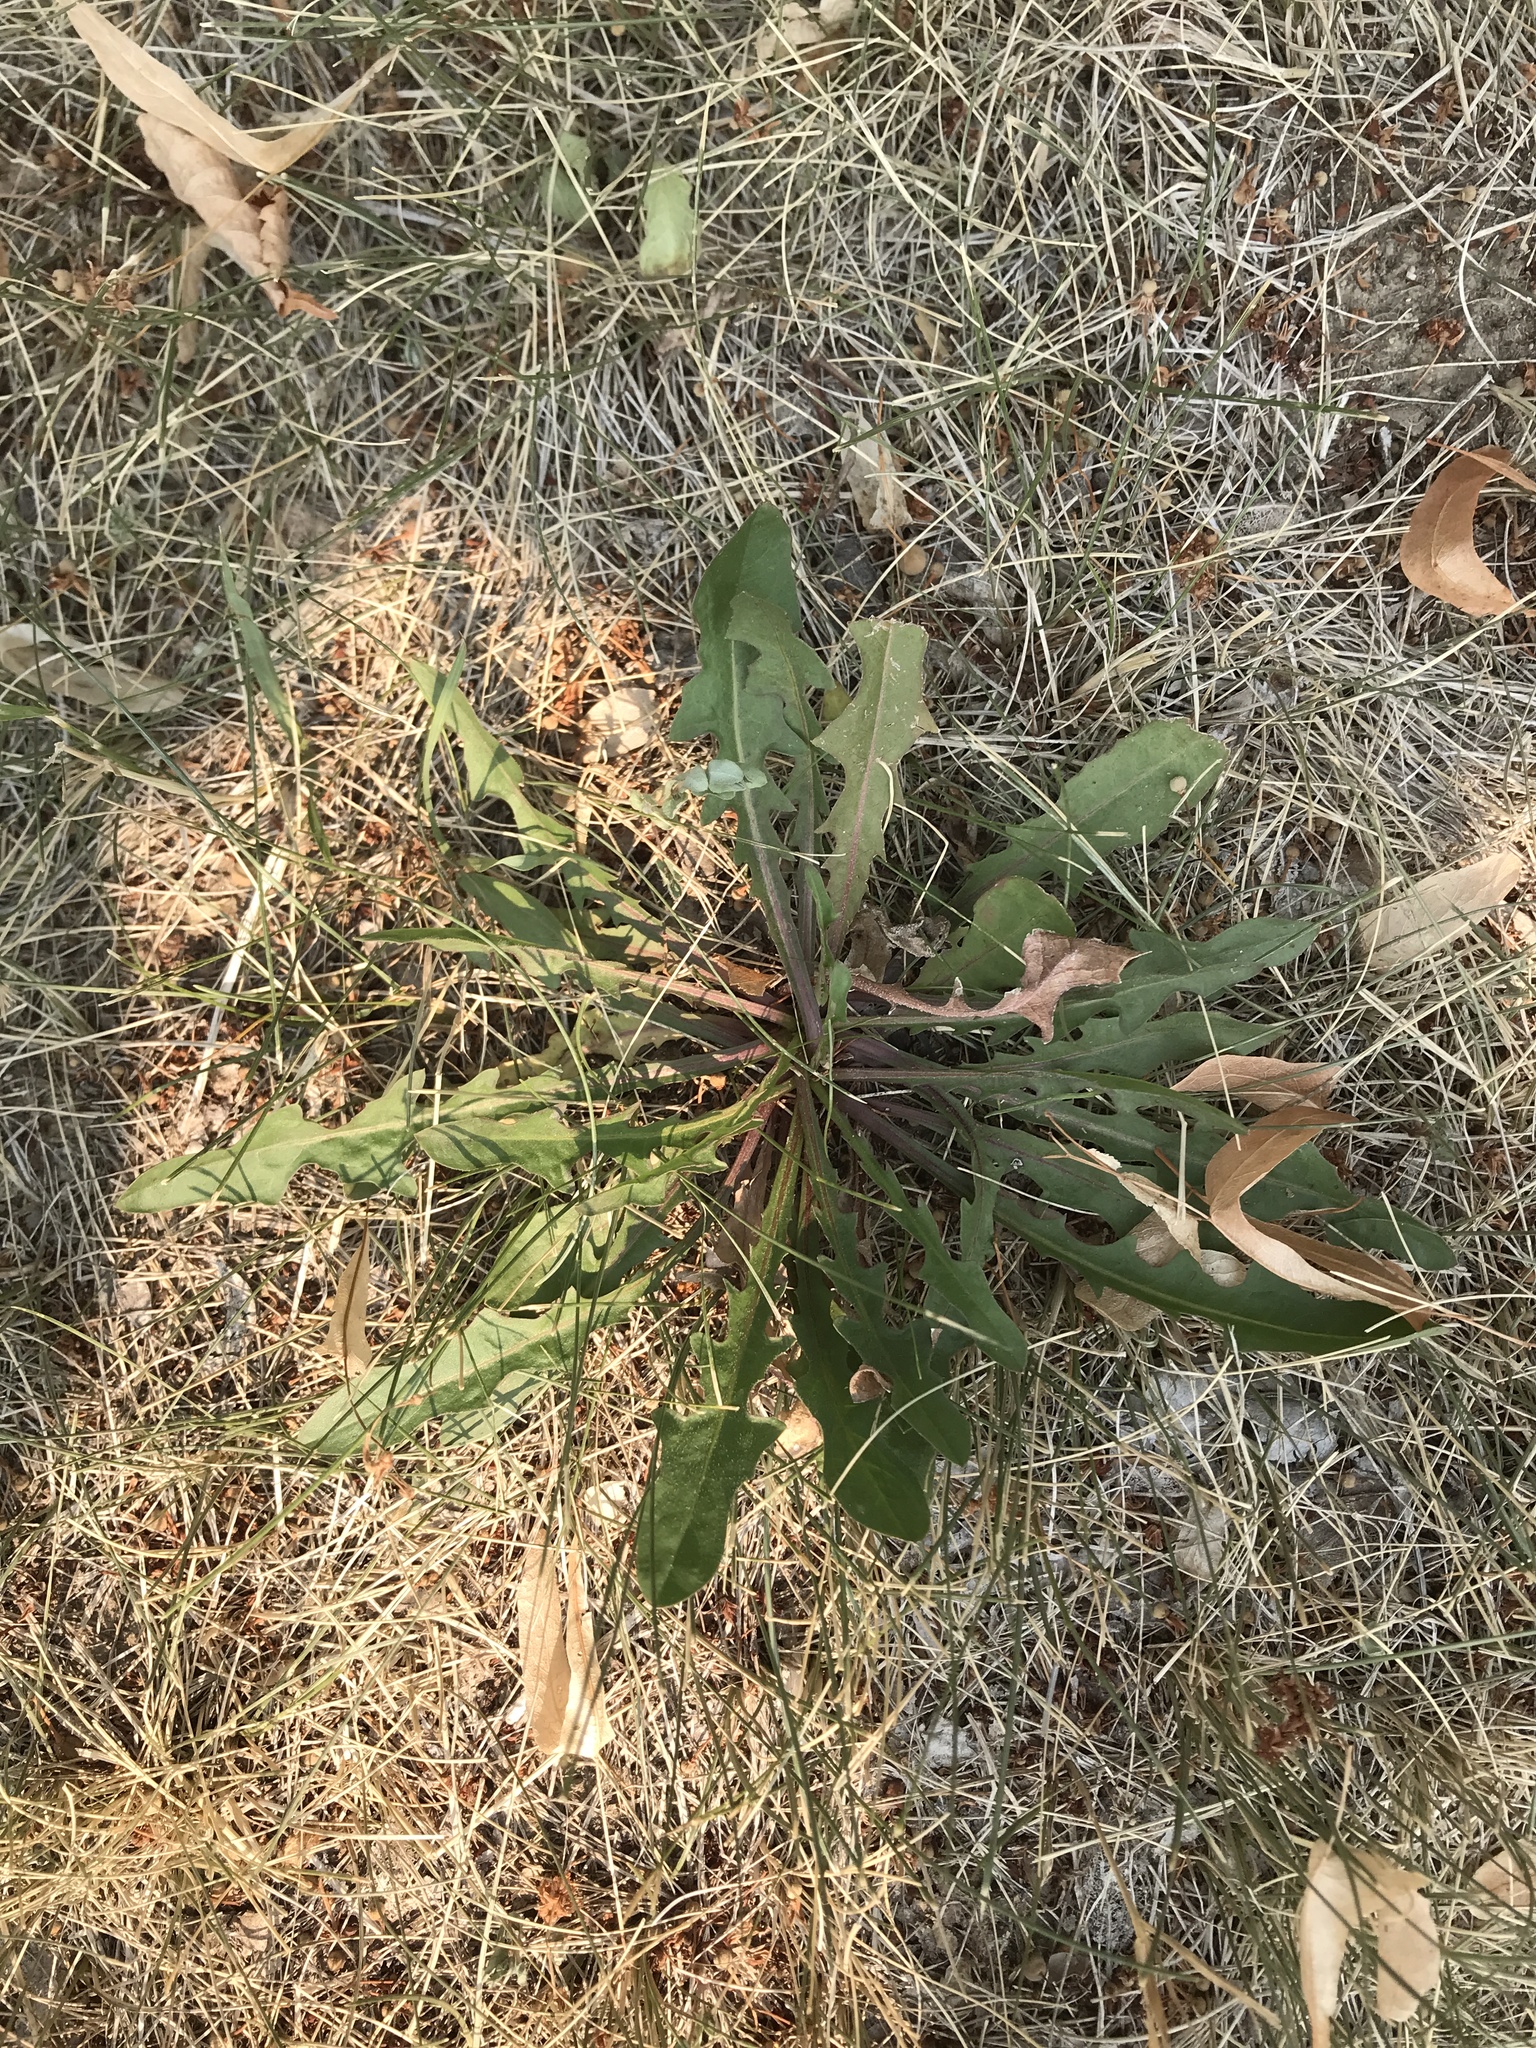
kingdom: Plantae
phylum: Tracheophyta
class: Magnoliopsida
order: Asterales
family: Asteraceae
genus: Taraxacum
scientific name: Taraxacum officinale
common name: Common dandelion
